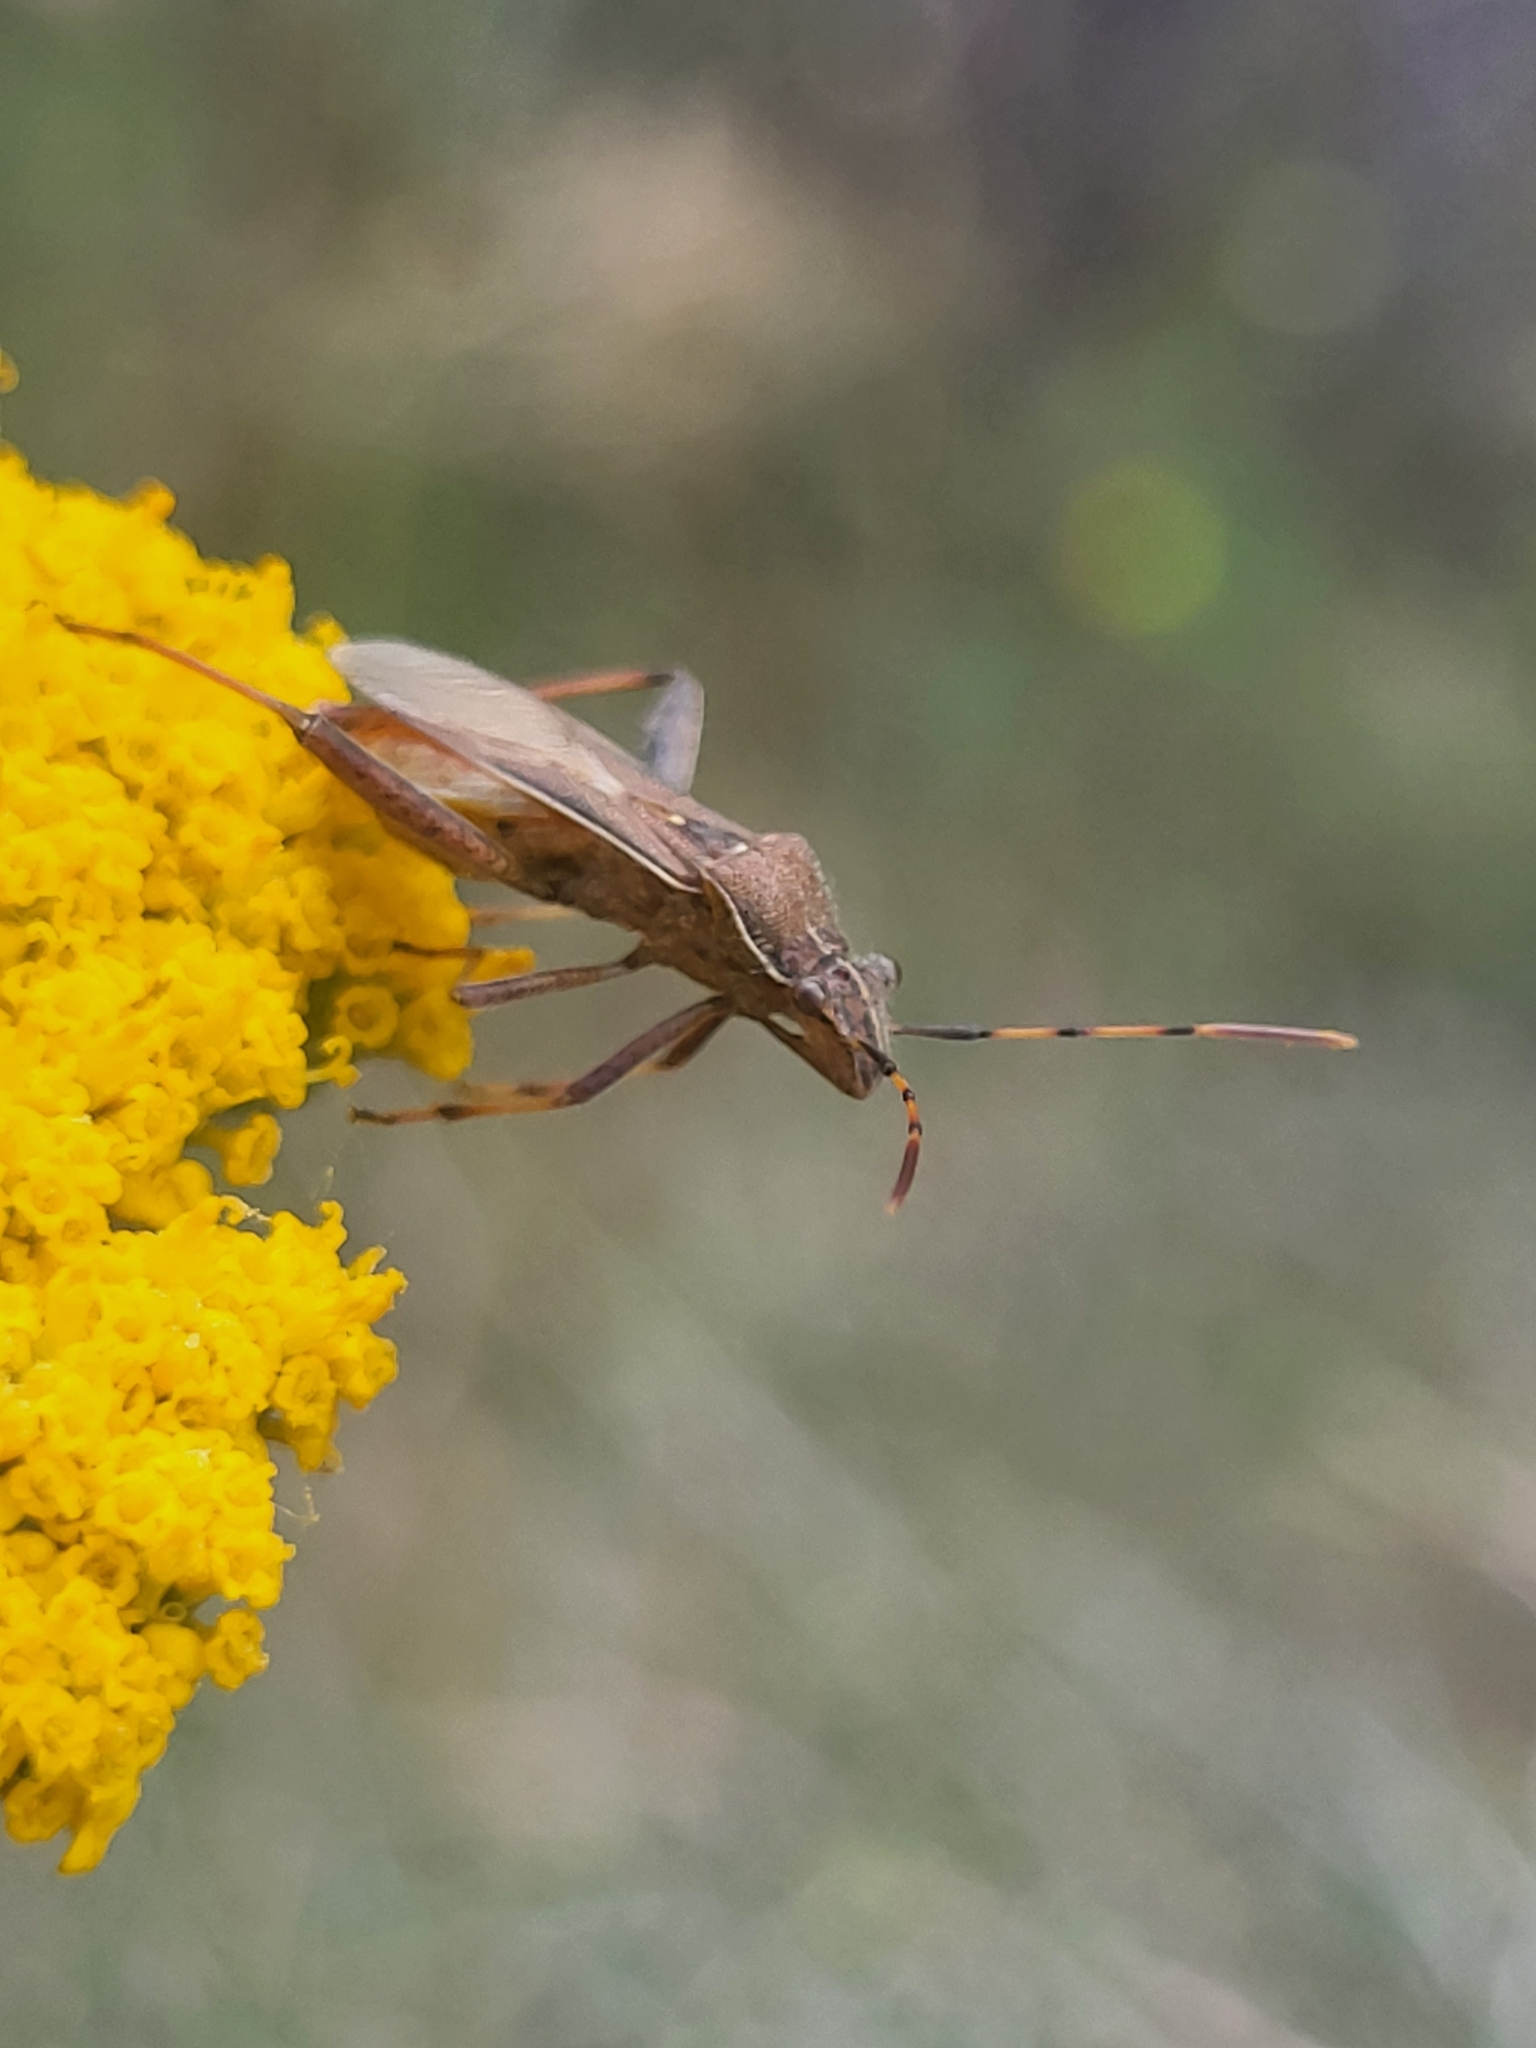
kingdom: Animalia
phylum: Arthropoda
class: Insecta
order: Hemiptera
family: Alydidae
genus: Camptopus
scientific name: Camptopus lateralis
